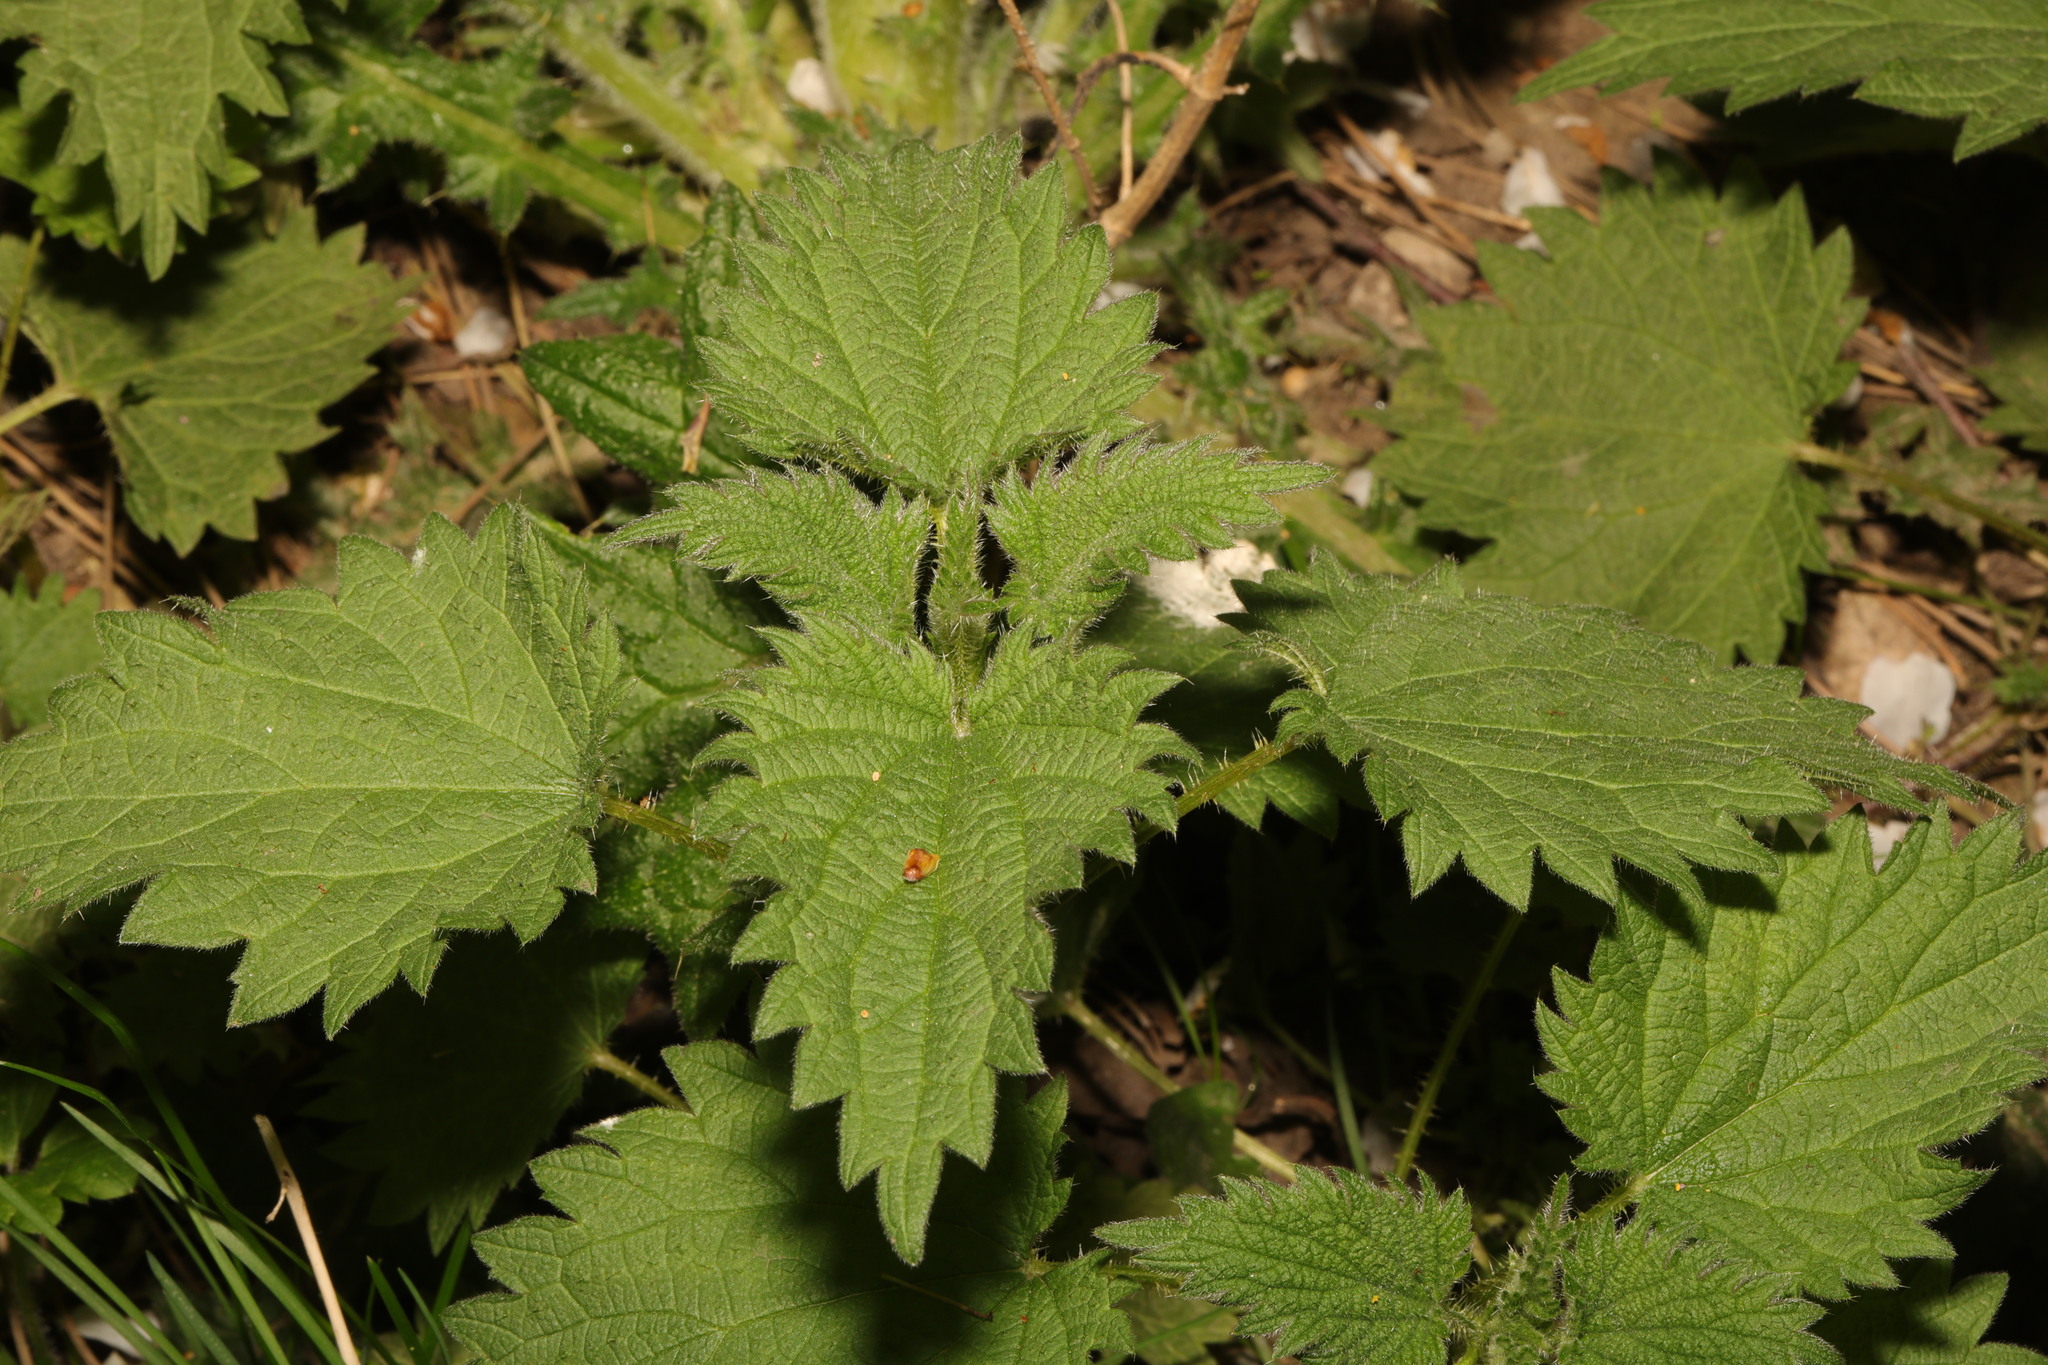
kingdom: Plantae
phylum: Tracheophyta
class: Magnoliopsida
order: Rosales
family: Urticaceae
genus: Urtica
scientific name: Urtica dioica
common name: Common nettle
